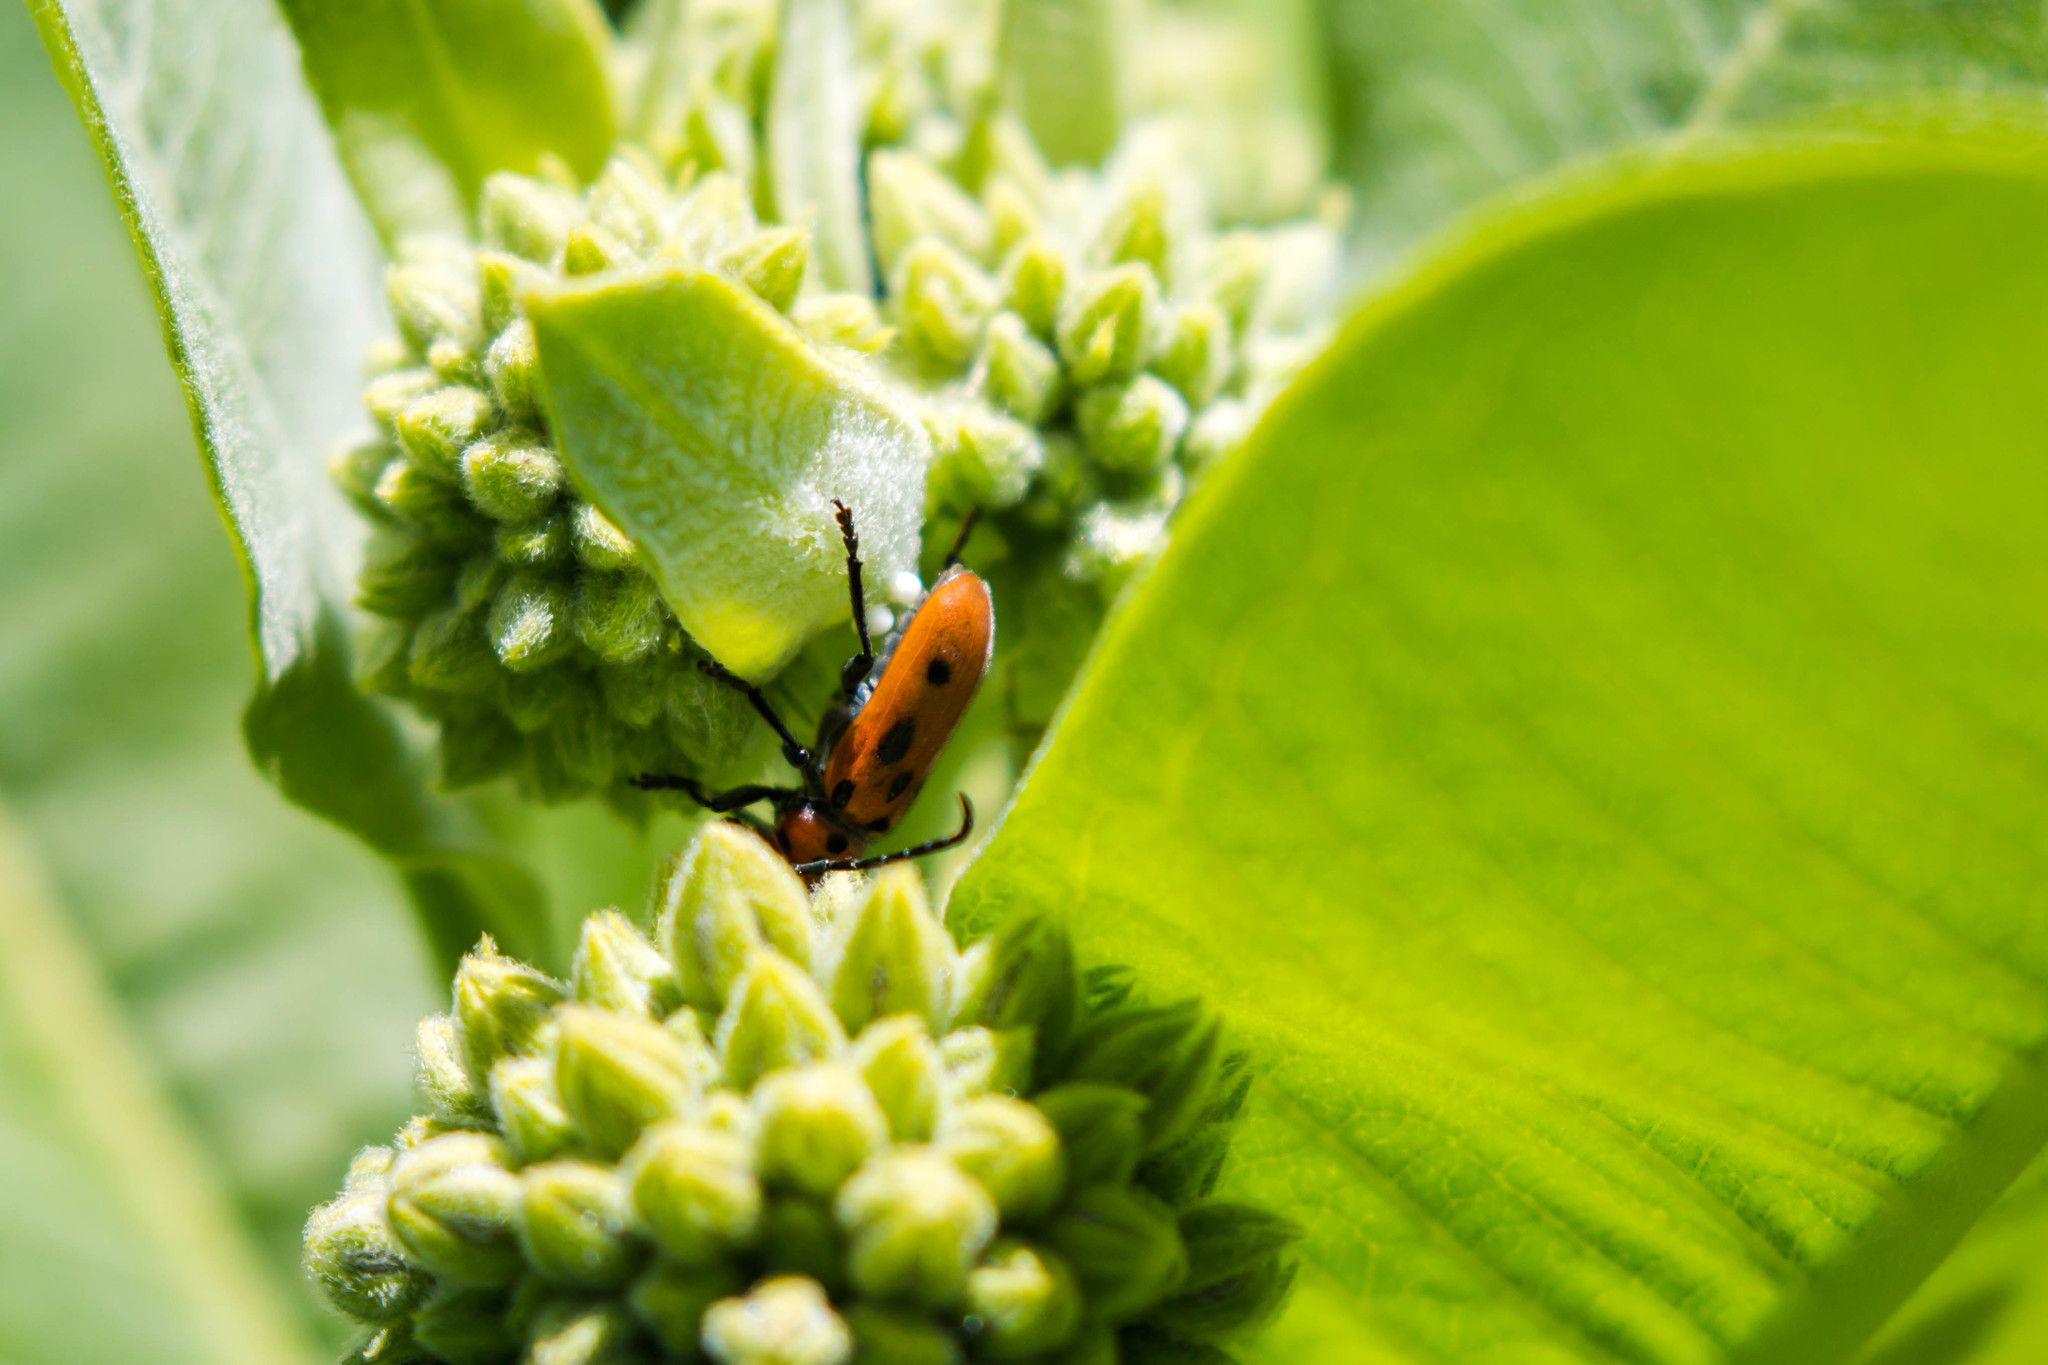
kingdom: Animalia
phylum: Arthropoda
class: Insecta
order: Coleoptera
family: Cerambycidae
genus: Tetraopes
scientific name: Tetraopes tetrophthalmus
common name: Red milkweed beetle
